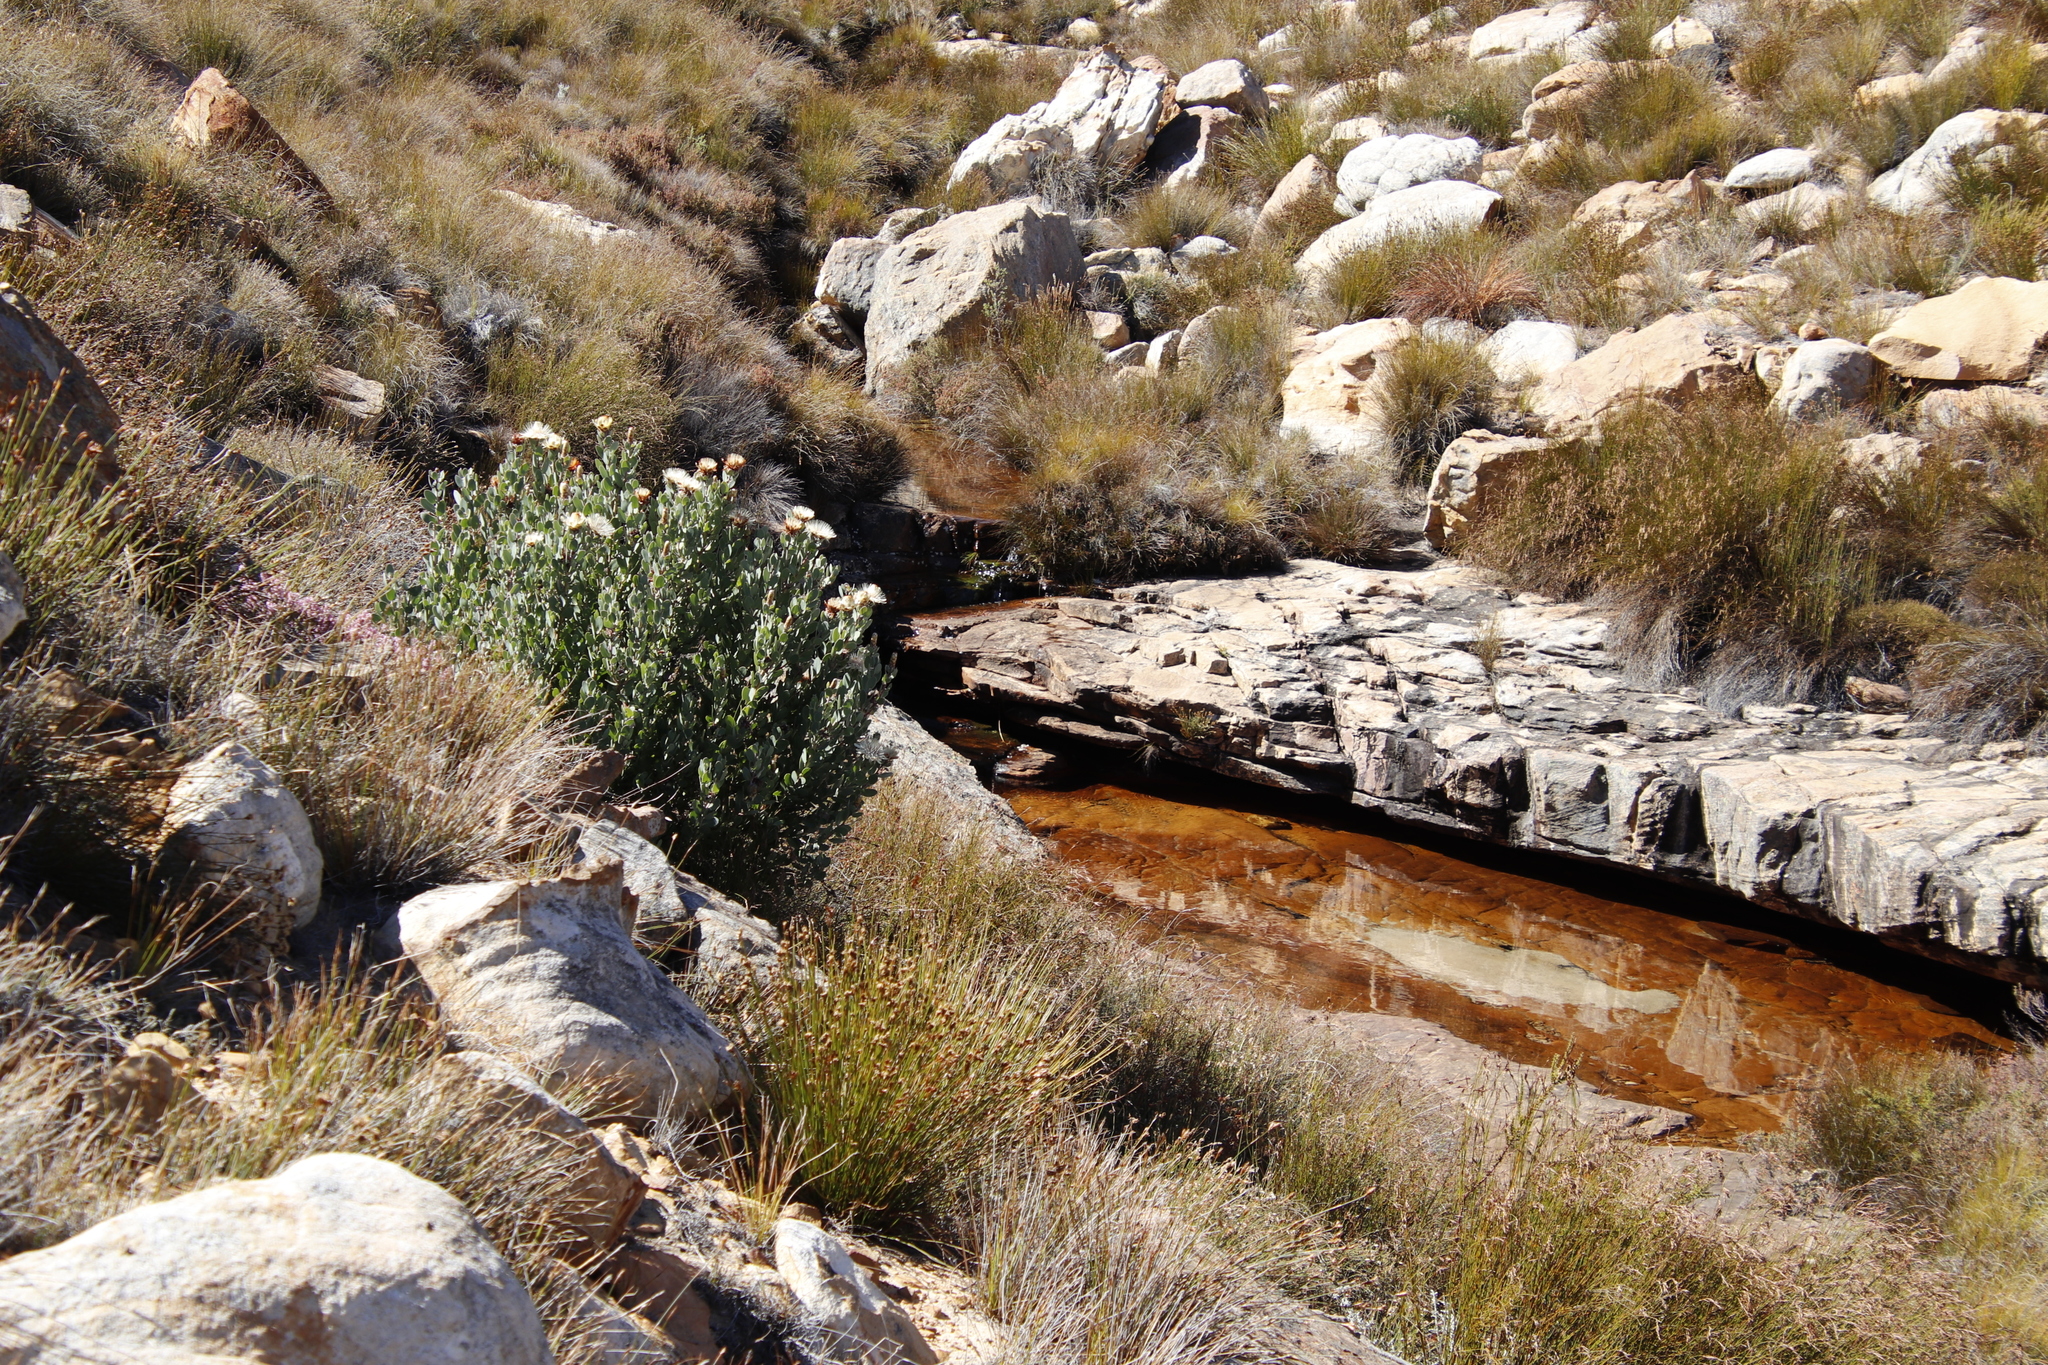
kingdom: Plantae
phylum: Tracheophyta
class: Magnoliopsida
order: Proteales
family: Proteaceae
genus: Protea
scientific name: Protea punctata
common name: Water sugarbush
